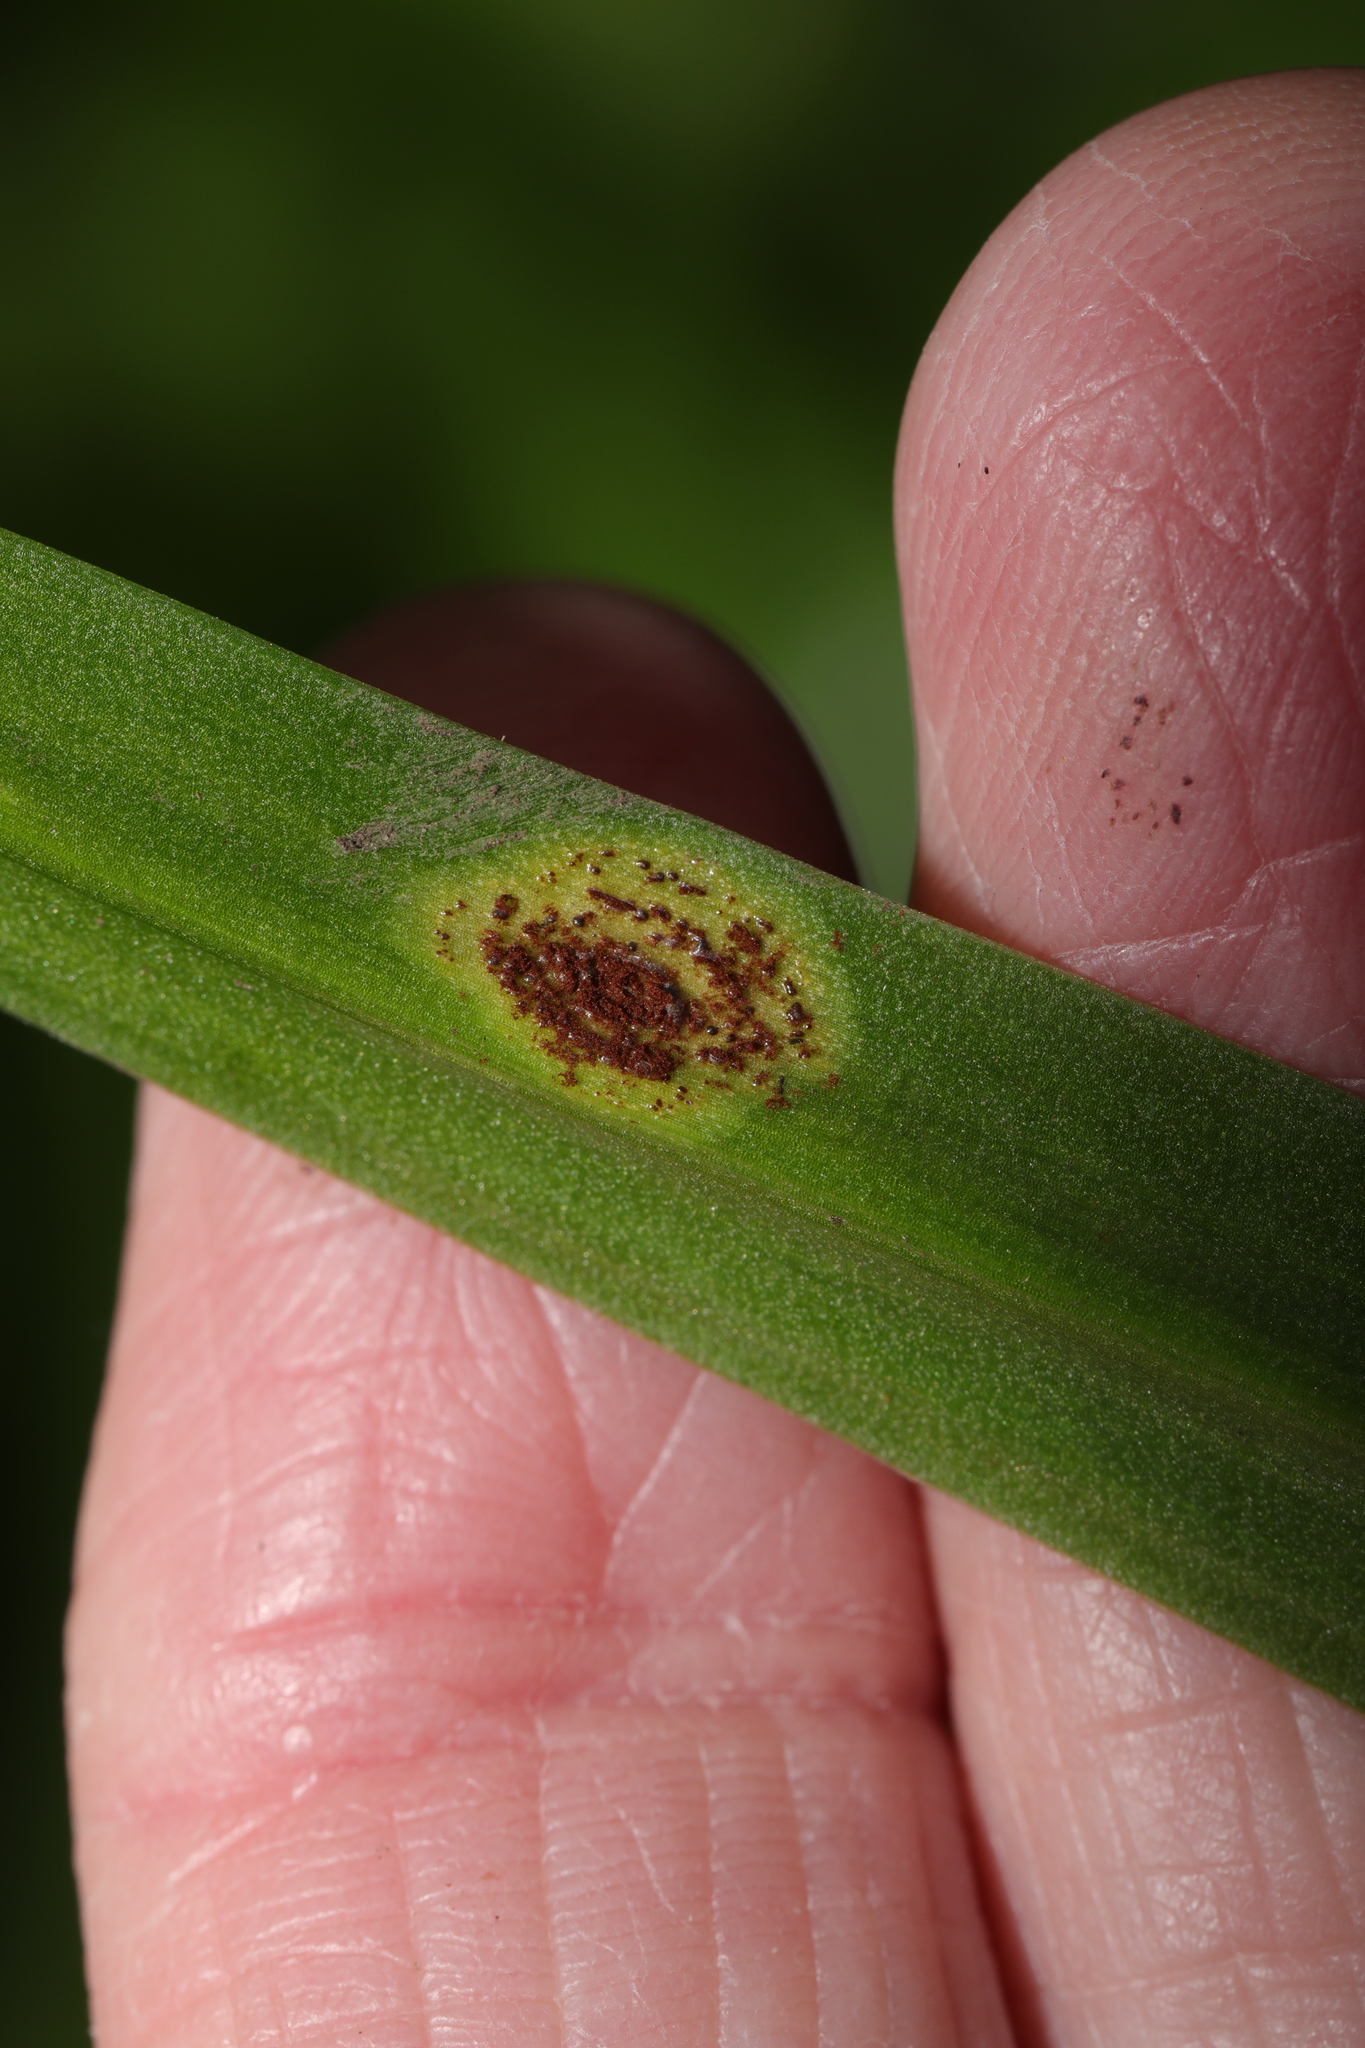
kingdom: Fungi
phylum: Basidiomycota
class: Pucciniomycetes
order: Pucciniales
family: Pucciniaceae
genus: Uromyces
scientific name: Uromyces hyacinthi
